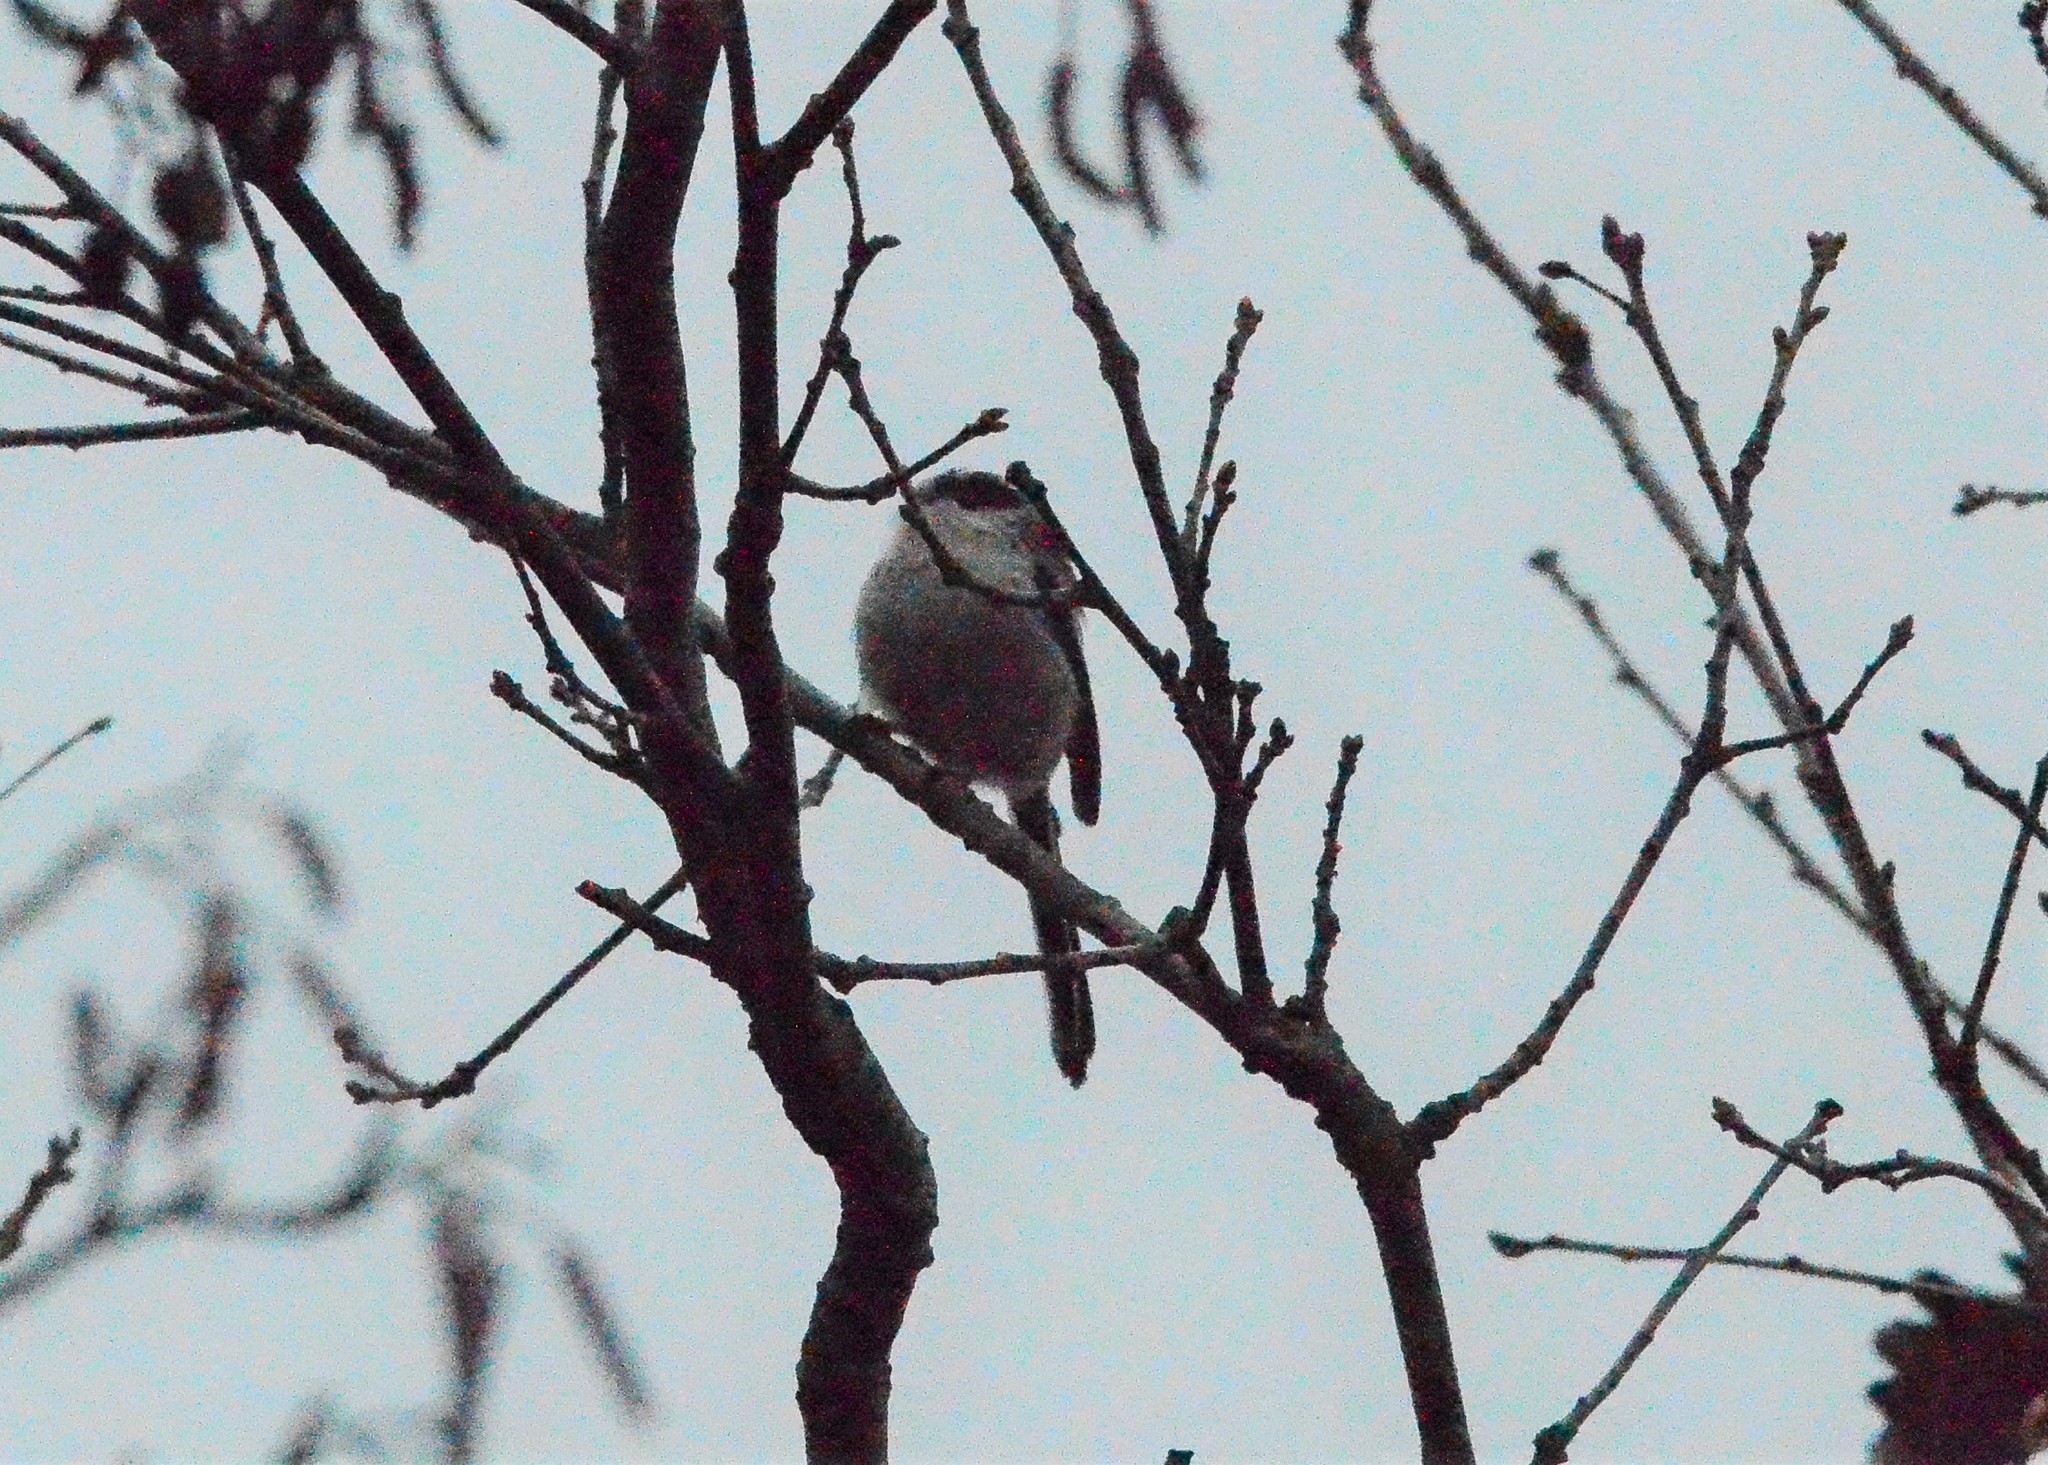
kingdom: Animalia
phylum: Chordata
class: Aves
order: Passeriformes
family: Aegithalidae
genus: Aegithalos
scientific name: Aegithalos caudatus
